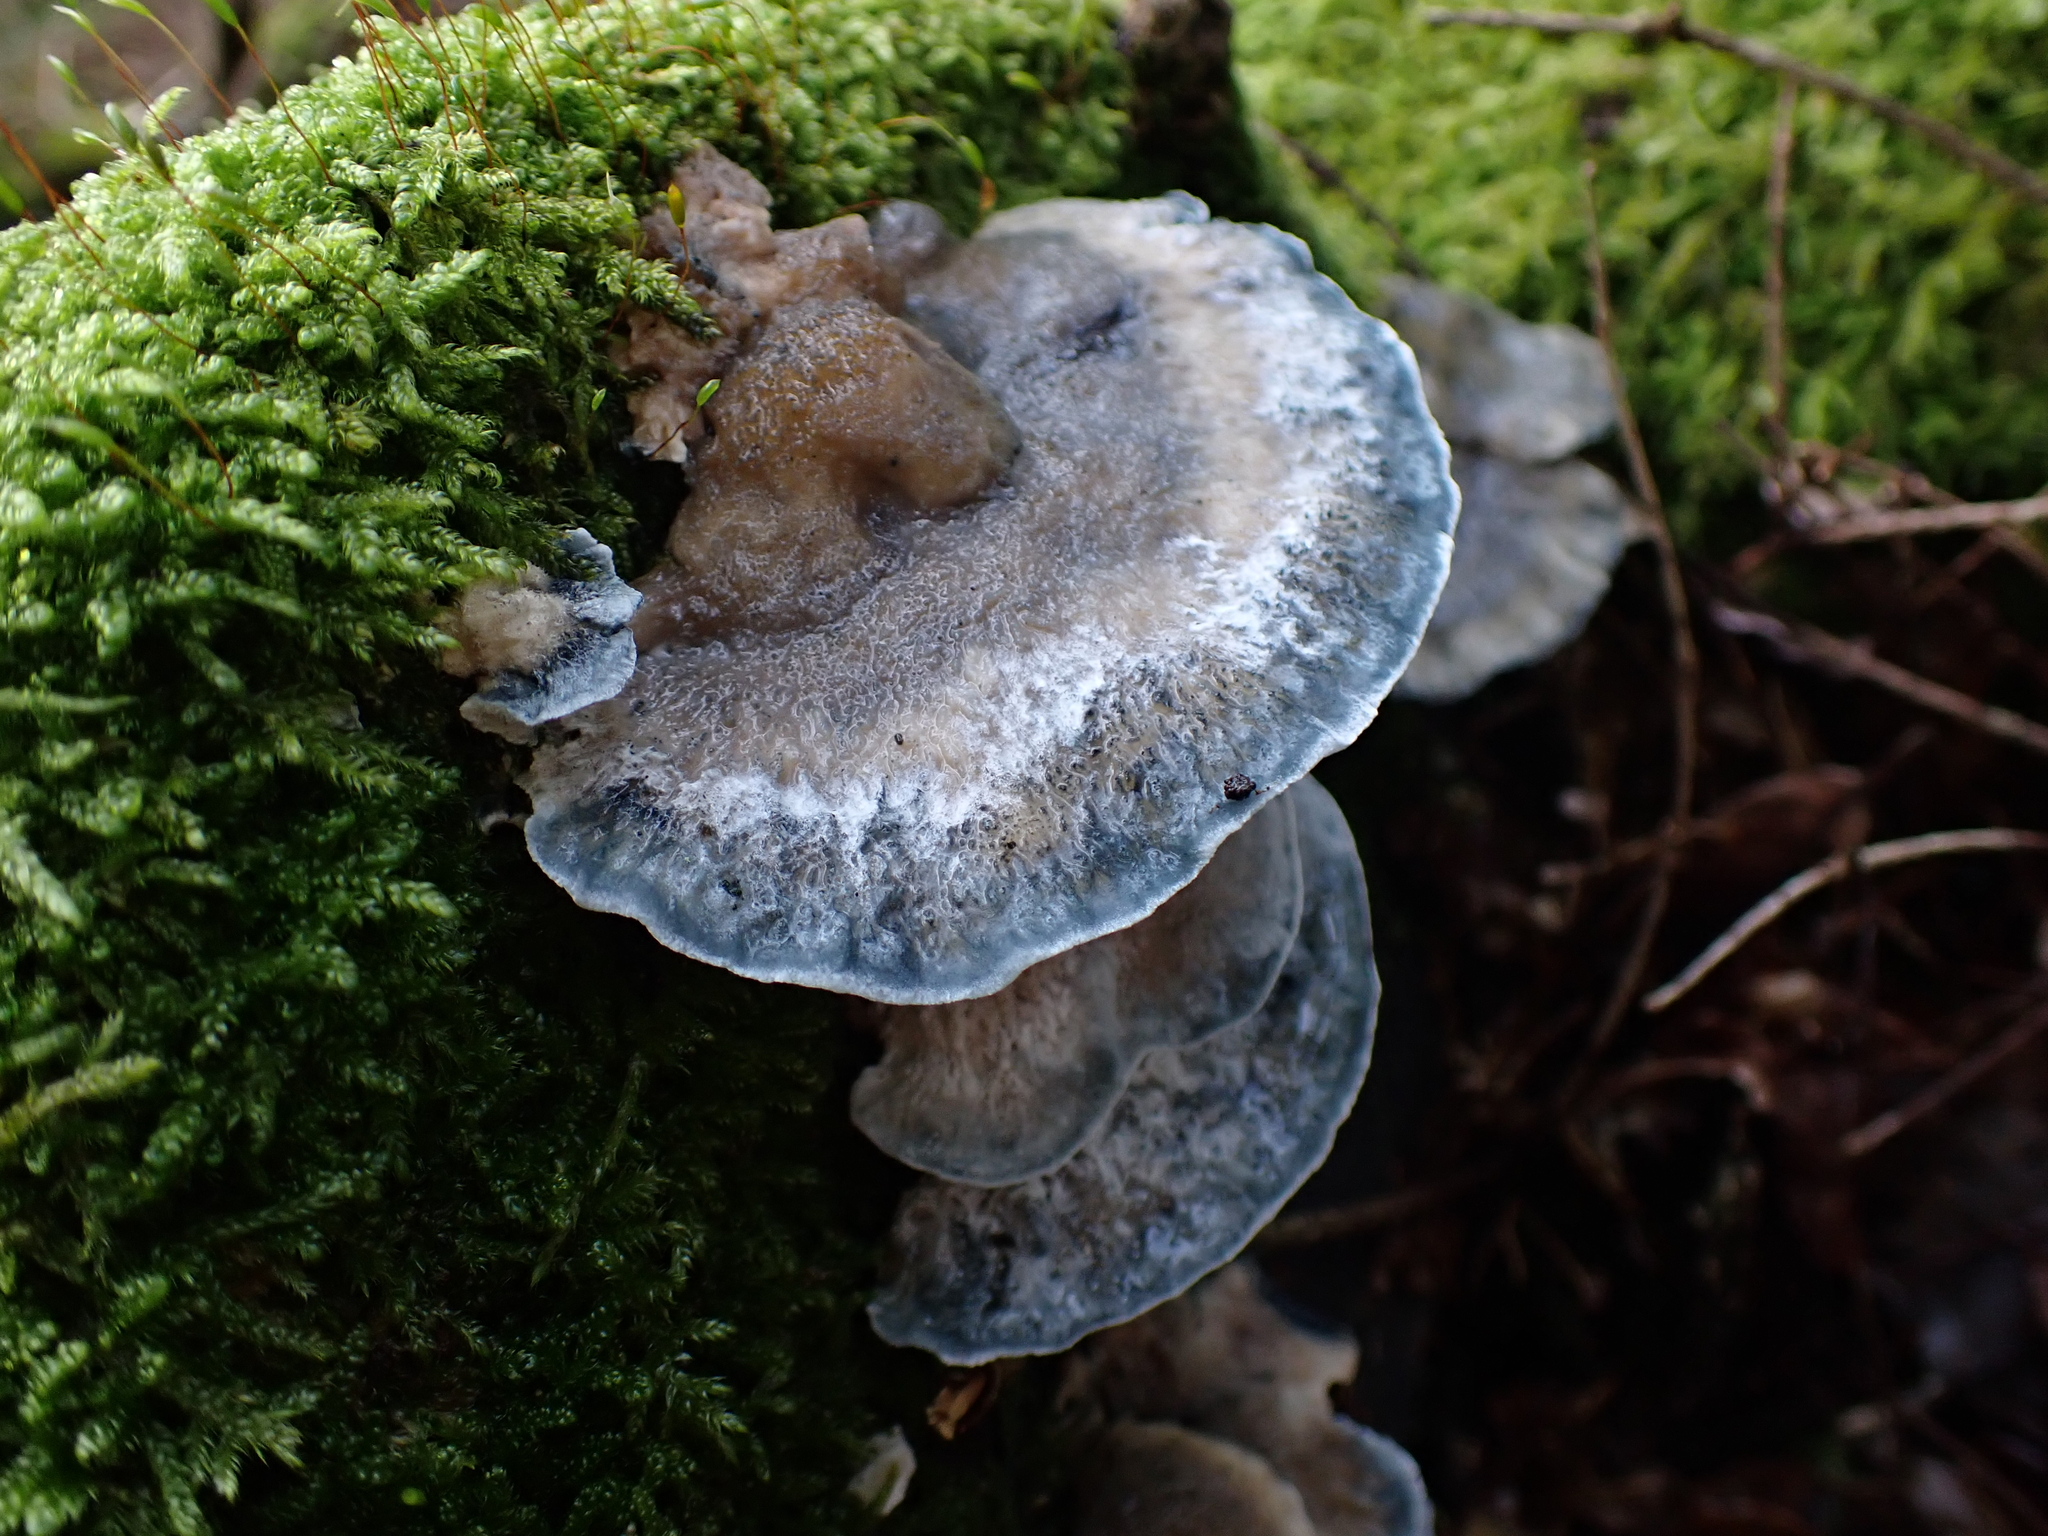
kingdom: Fungi
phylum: Basidiomycota
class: Agaricomycetes
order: Polyporales
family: Polyporaceae
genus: Cyanosporus
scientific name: Cyanosporus caesius
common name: Blue cheese polypore
